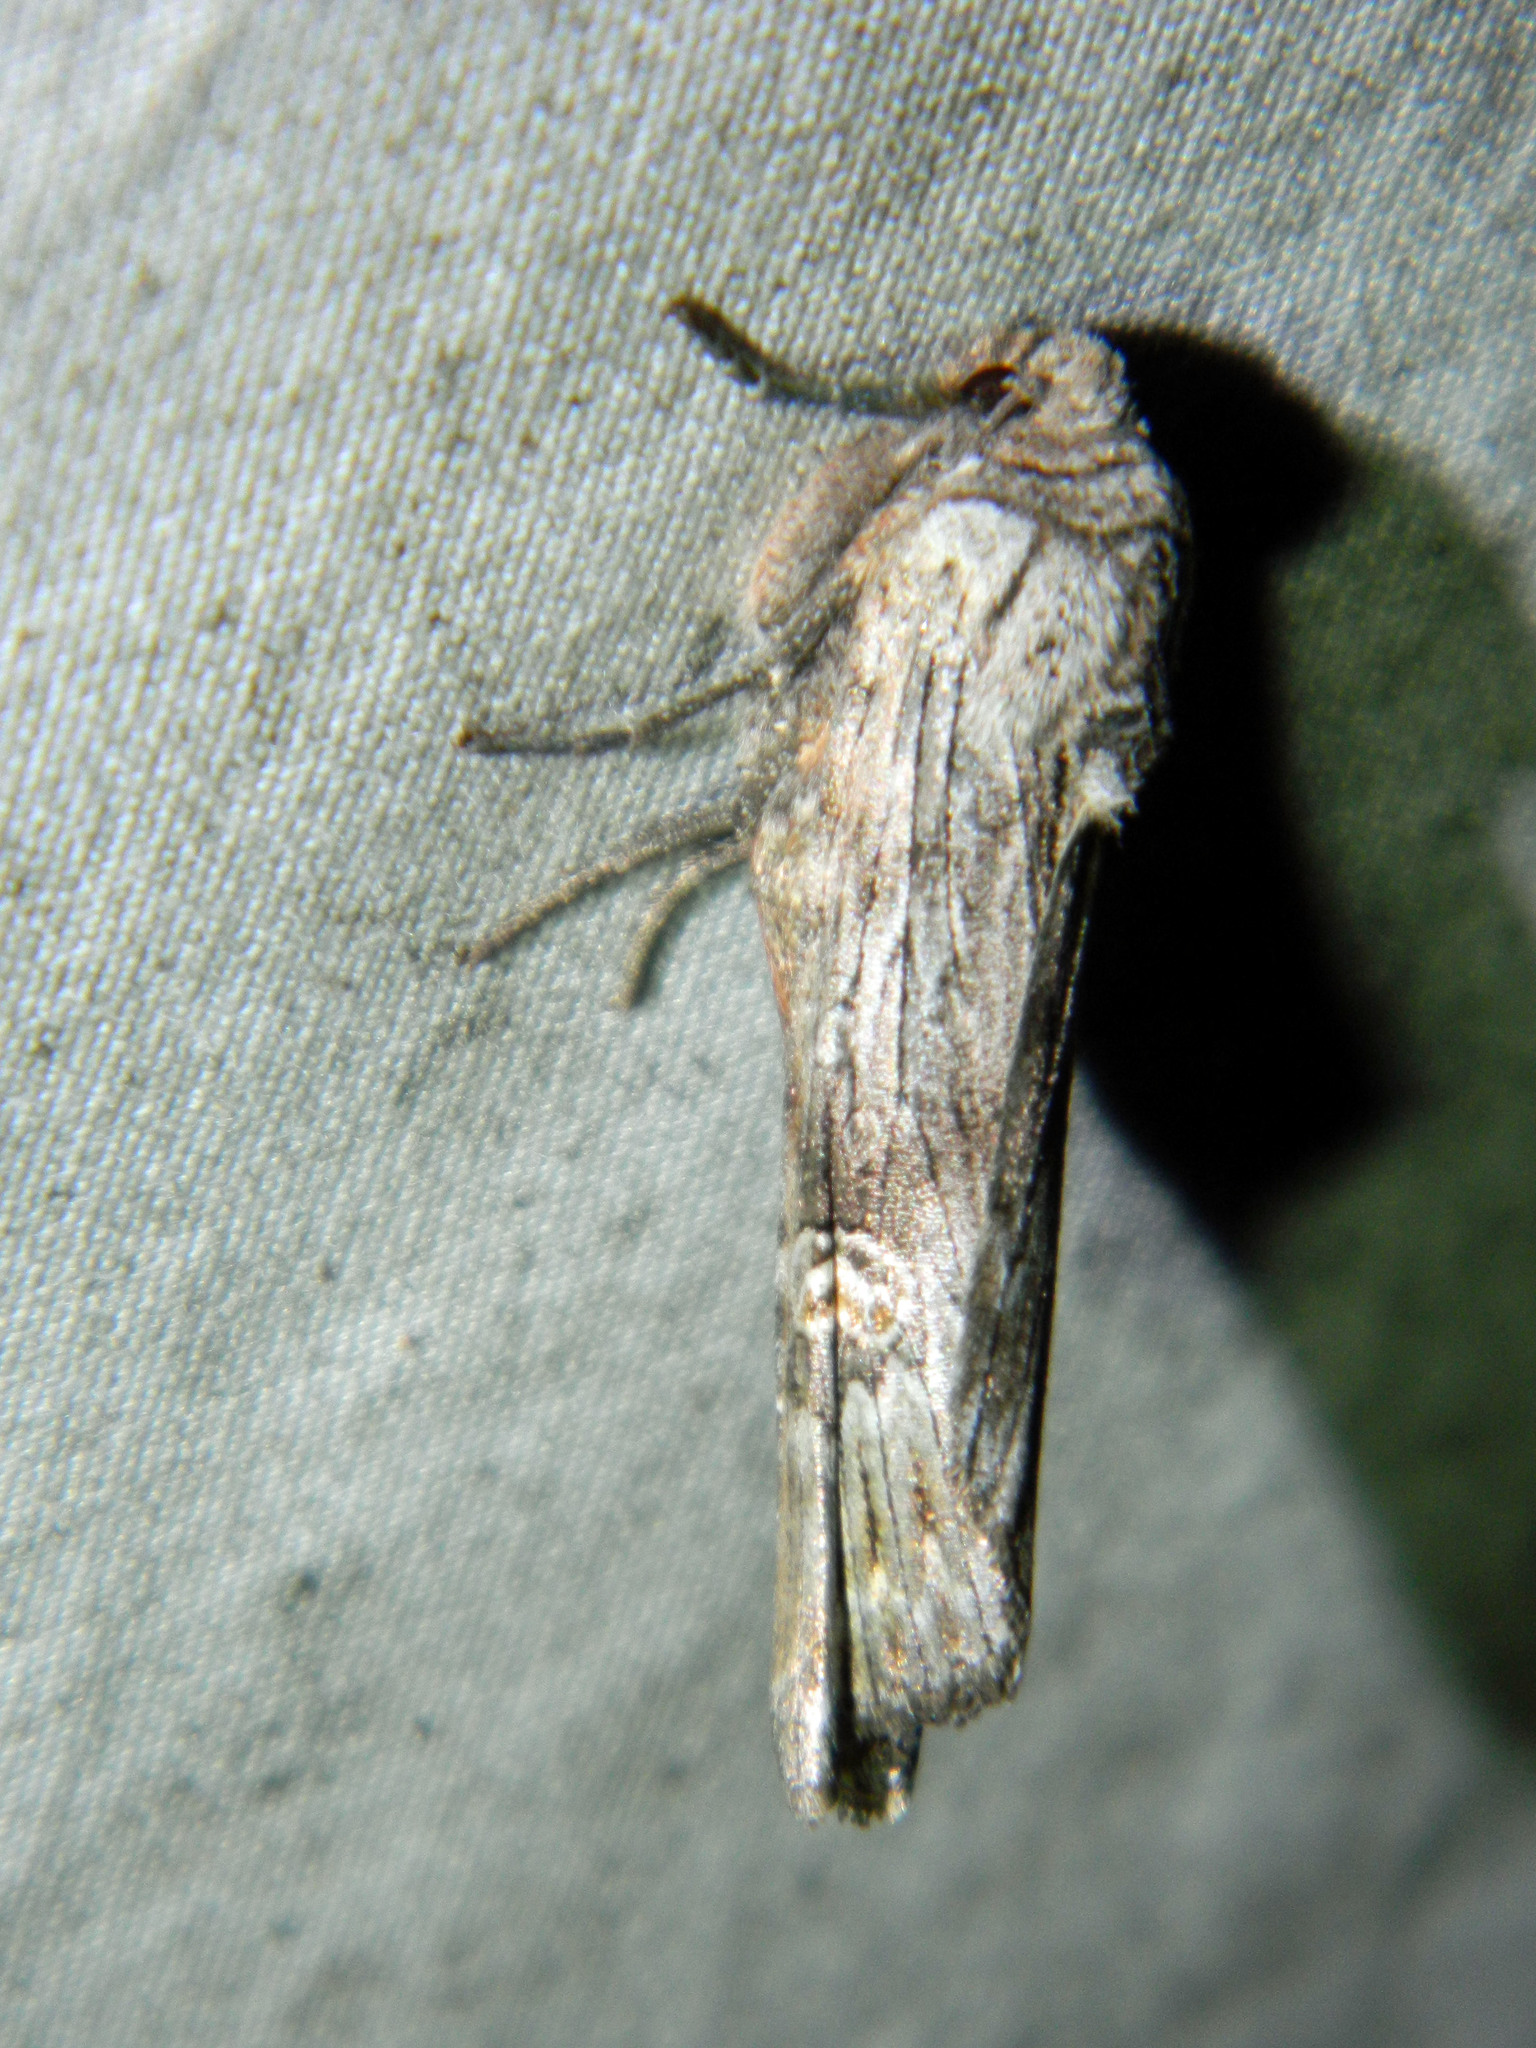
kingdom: Animalia
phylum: Arthropoda
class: Insecta
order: Lepidoptera
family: Noctuidae
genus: Xylena
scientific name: Xylena germana
